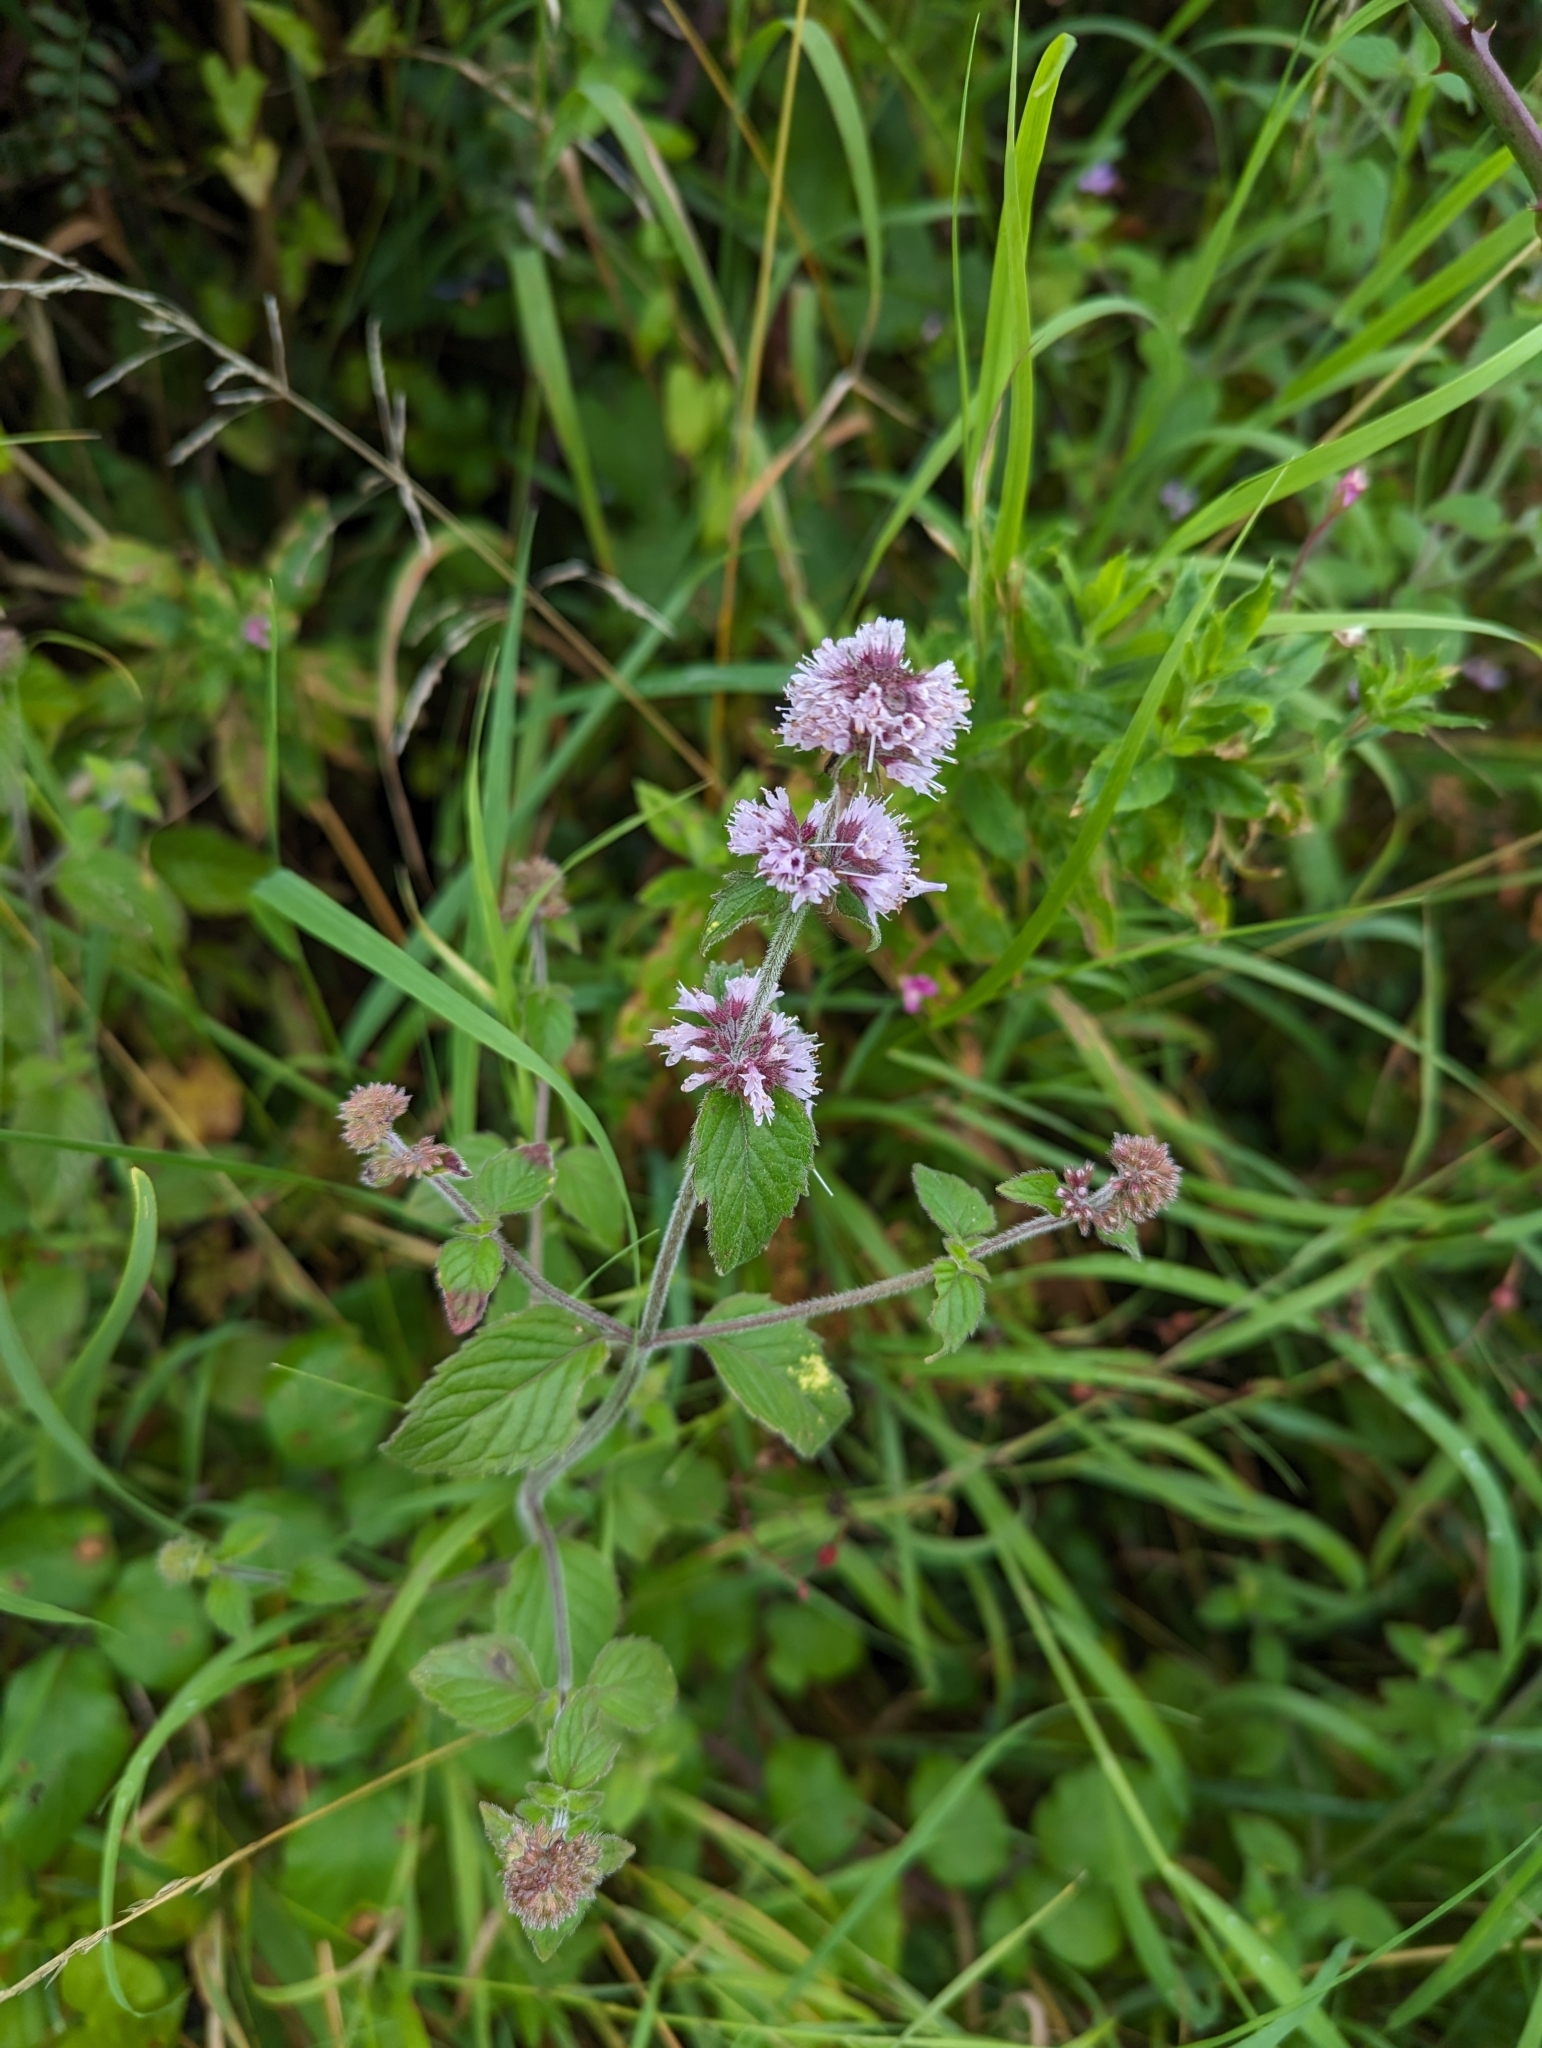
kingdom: Plantae
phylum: Tracheophyta
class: Magnoliopsida
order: Lamiales
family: Lamiaceae
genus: Mentha
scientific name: Mentha aquatica
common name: Water mint
